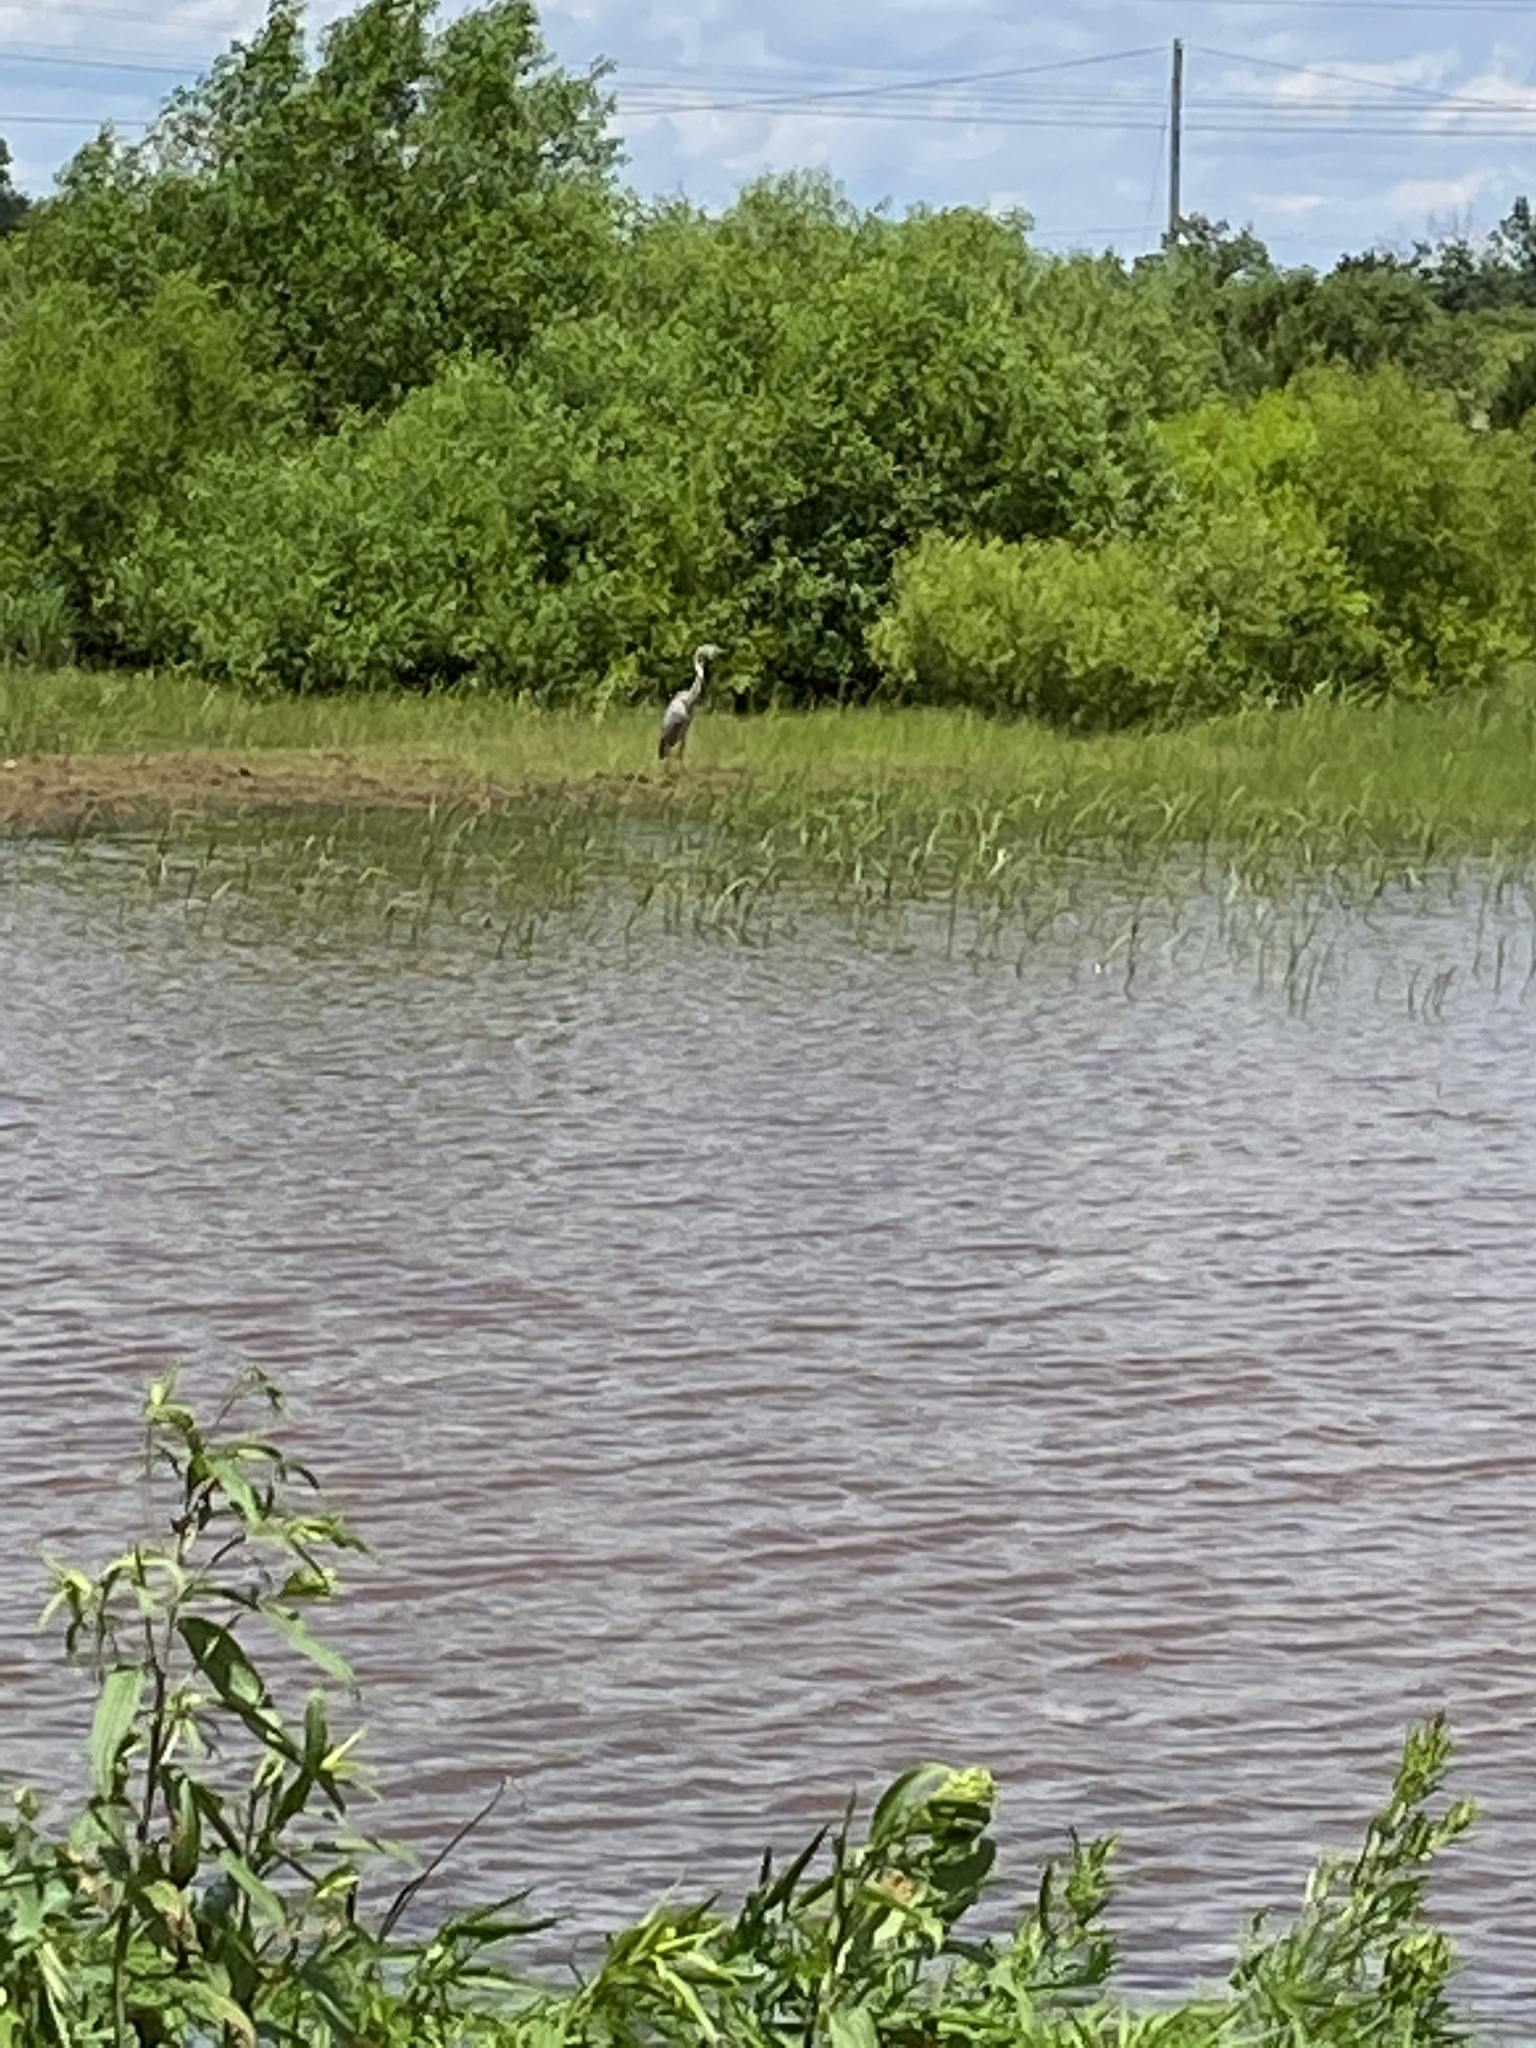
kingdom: Animalia
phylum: Chordata
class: Aves
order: Pelecaniformes
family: Ardeidae
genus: Ardea
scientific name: Ardea herodias
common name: Great blue heron
